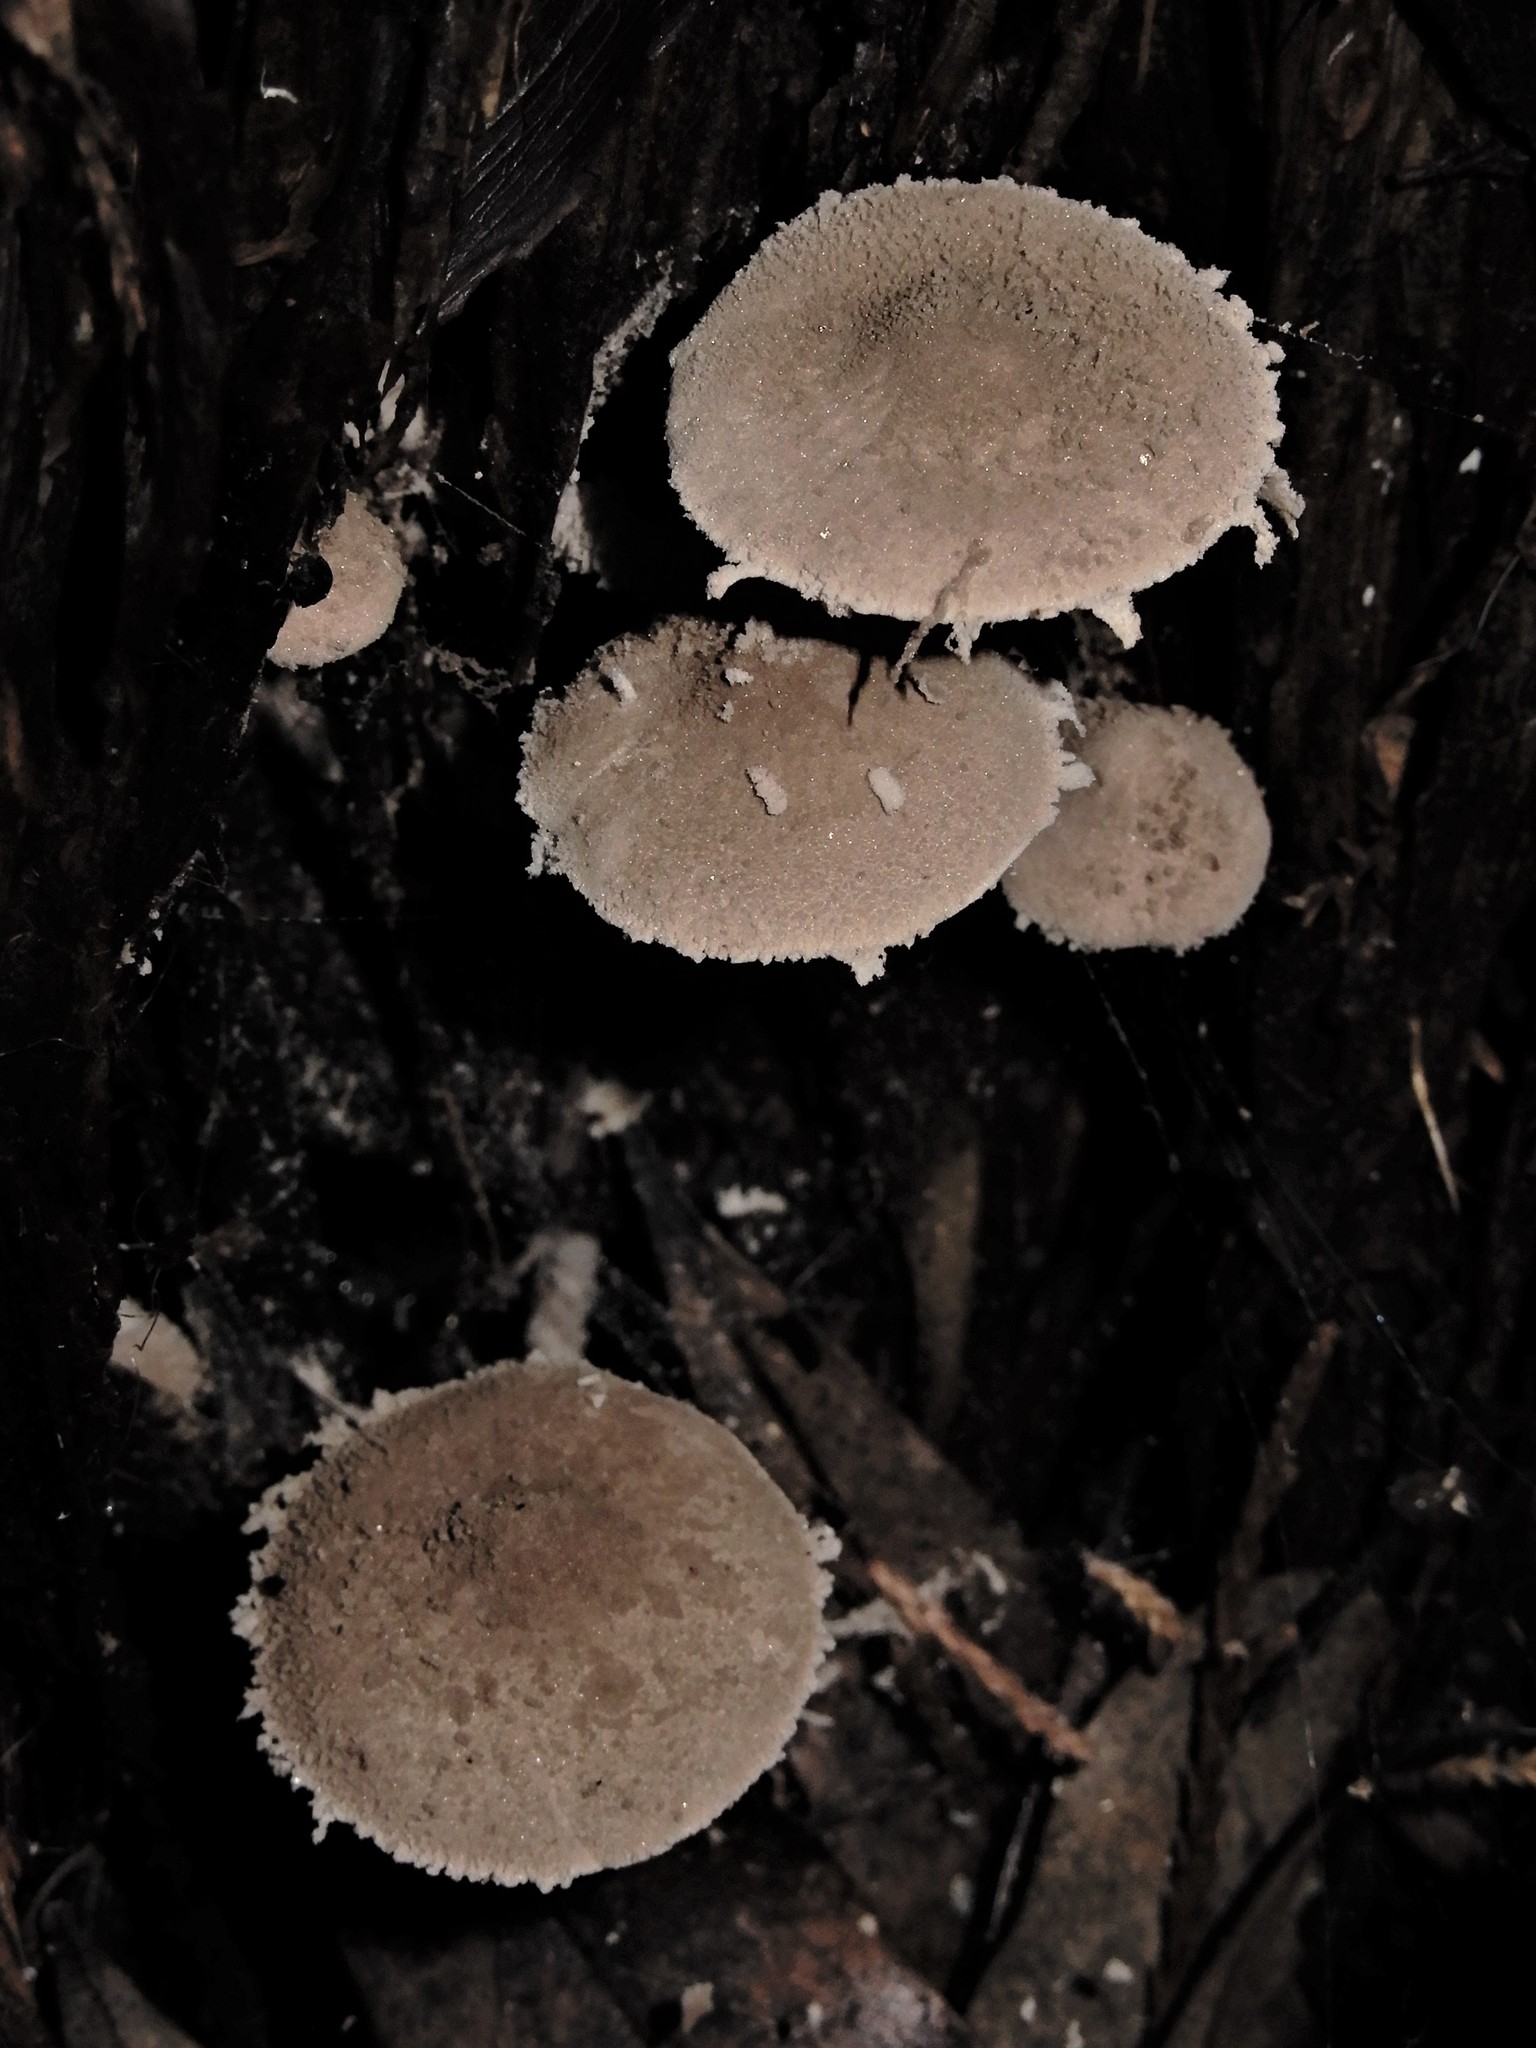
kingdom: Fungi
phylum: Basidiomycota
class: Agaricomycetes
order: Agaricales
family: Agaricaceae
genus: Melanophyllum
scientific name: Melanophyllum
